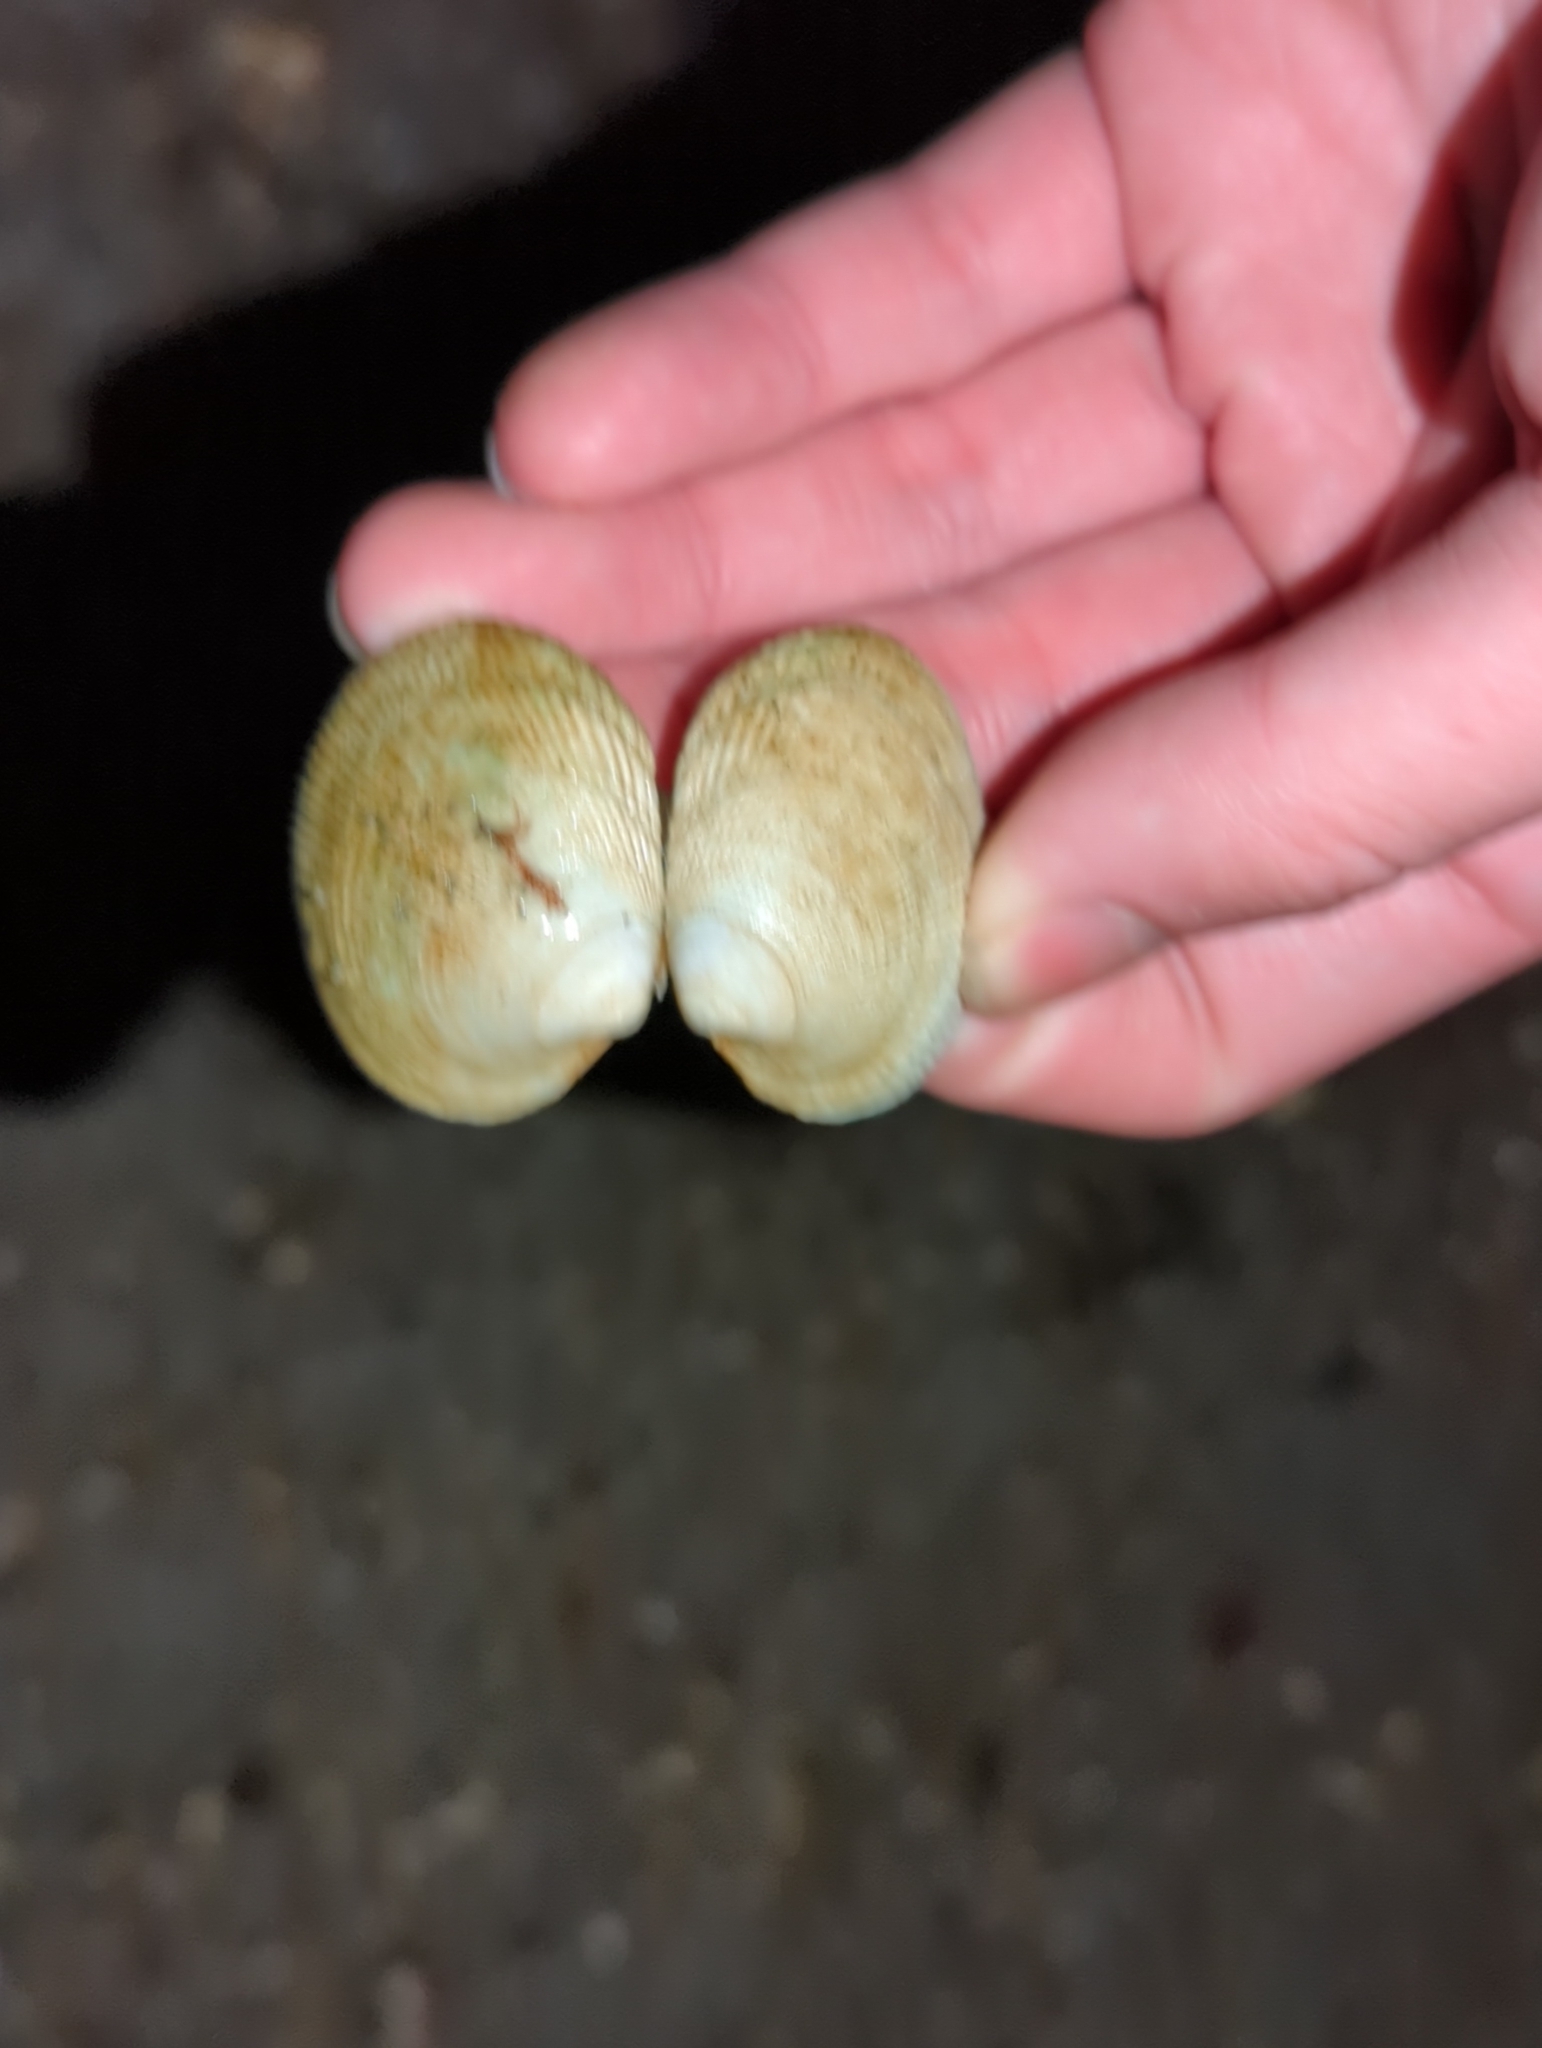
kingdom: Animalia
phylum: Mollusca
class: Bivalvia
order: Venerida
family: Veneridae
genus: Leukoma
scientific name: Leukoma staminea
